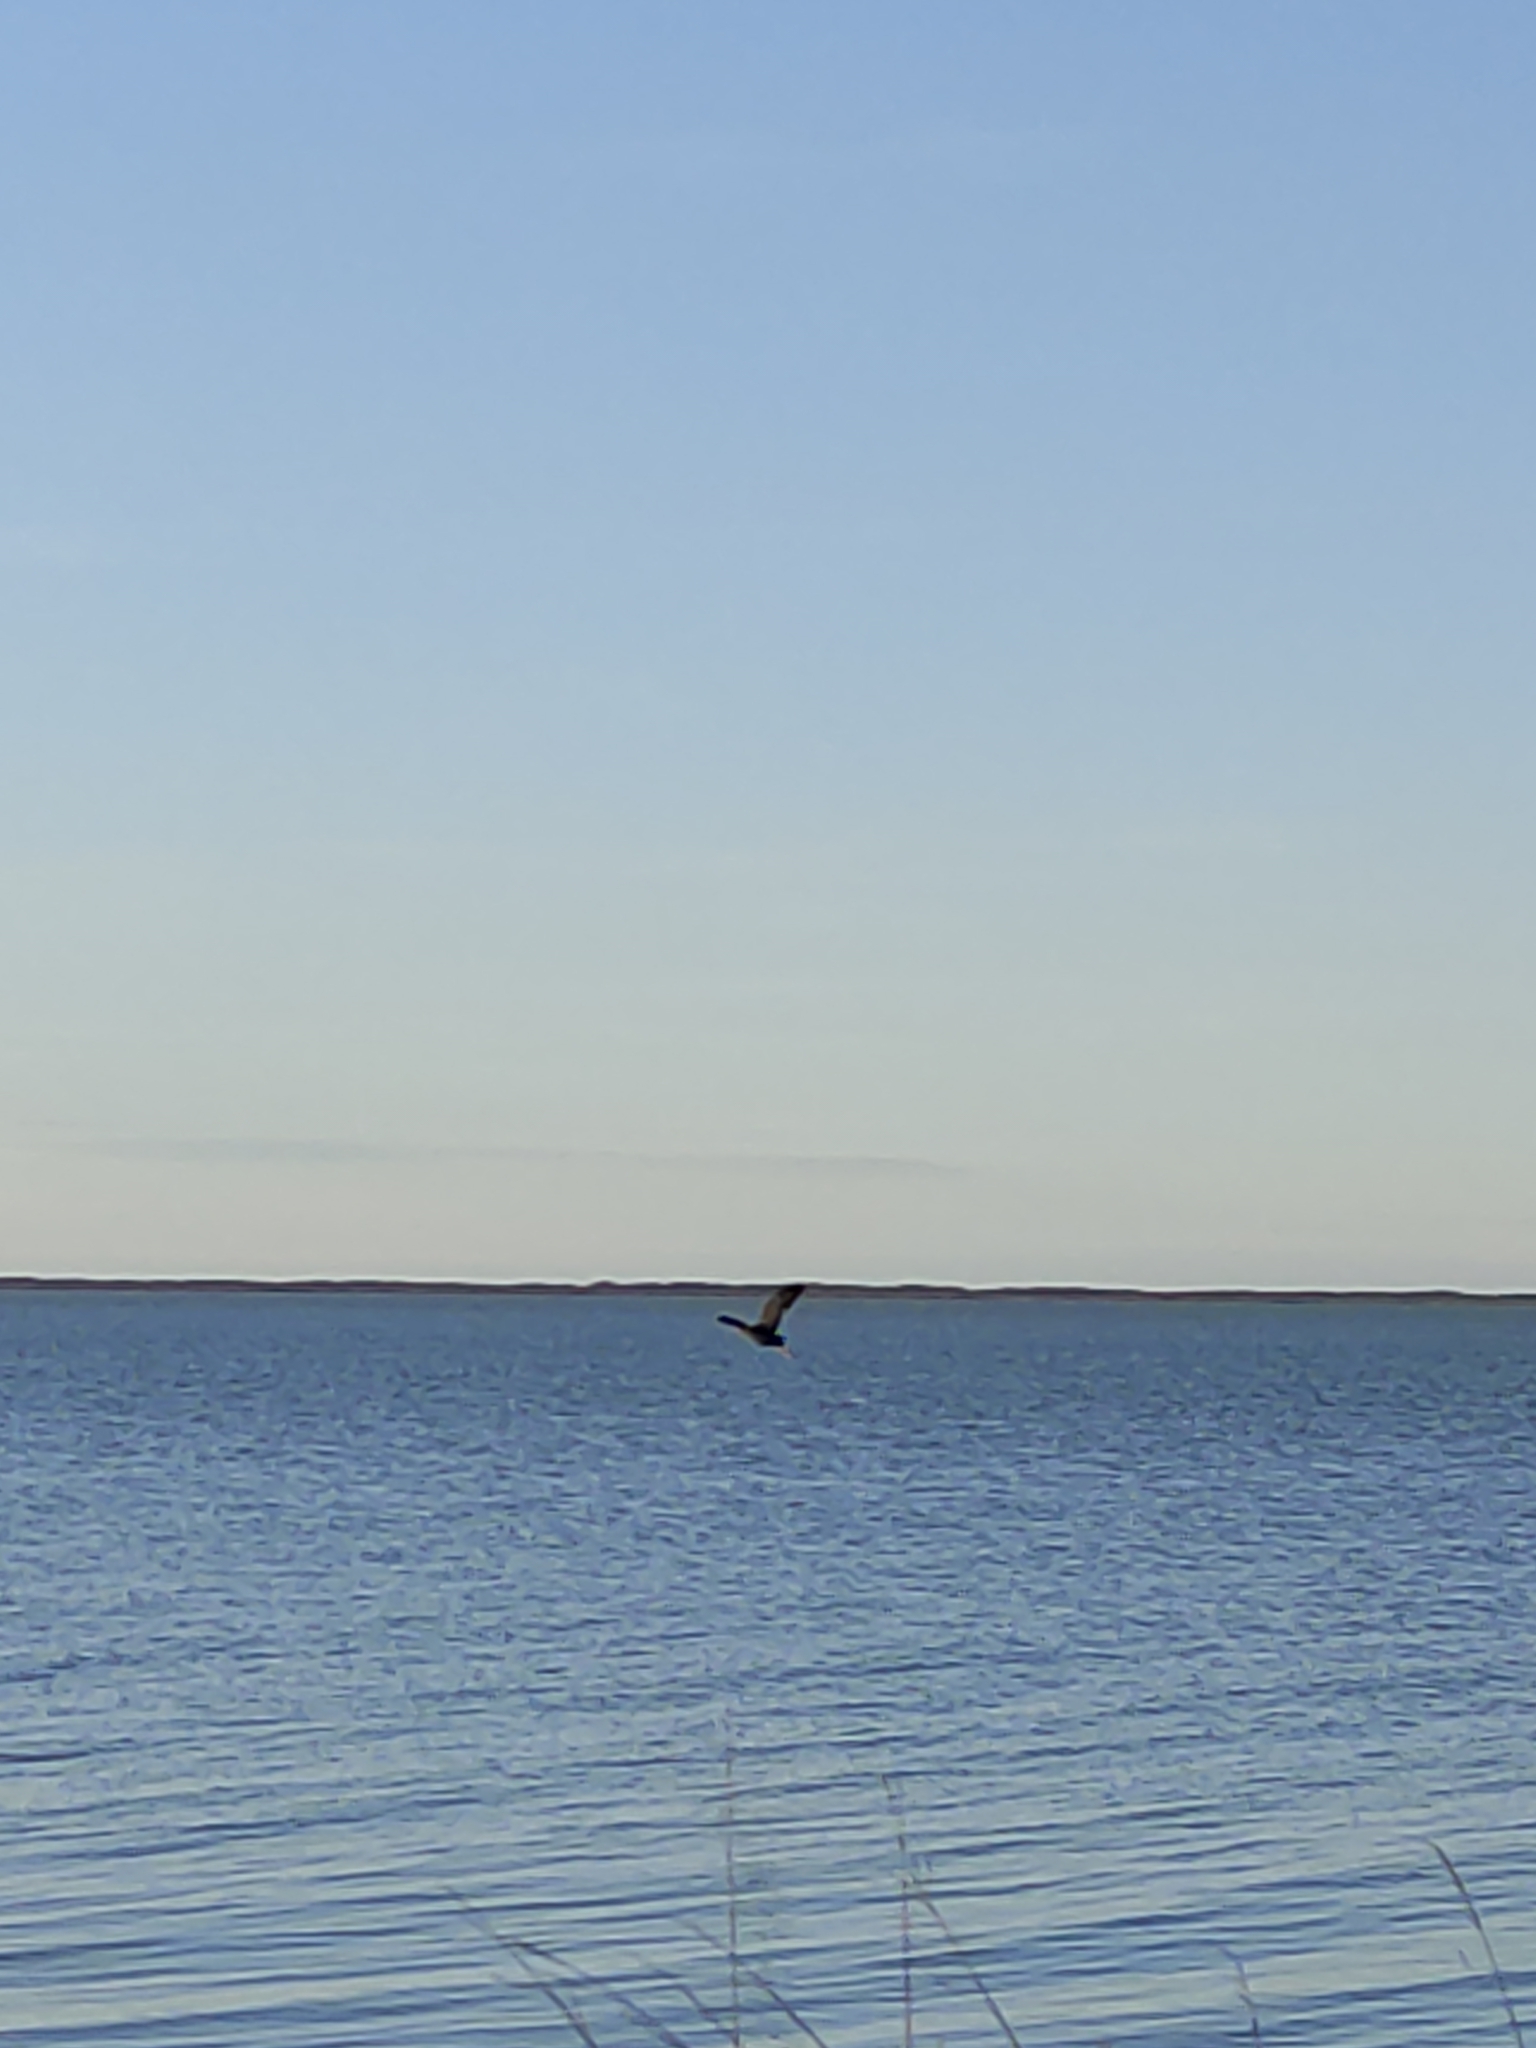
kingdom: Animalia
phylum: Chordata
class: Aves
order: Pelecaniformes
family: Ardeidae
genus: Egretta
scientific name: Egretta sacra
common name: Pacific reef heron
